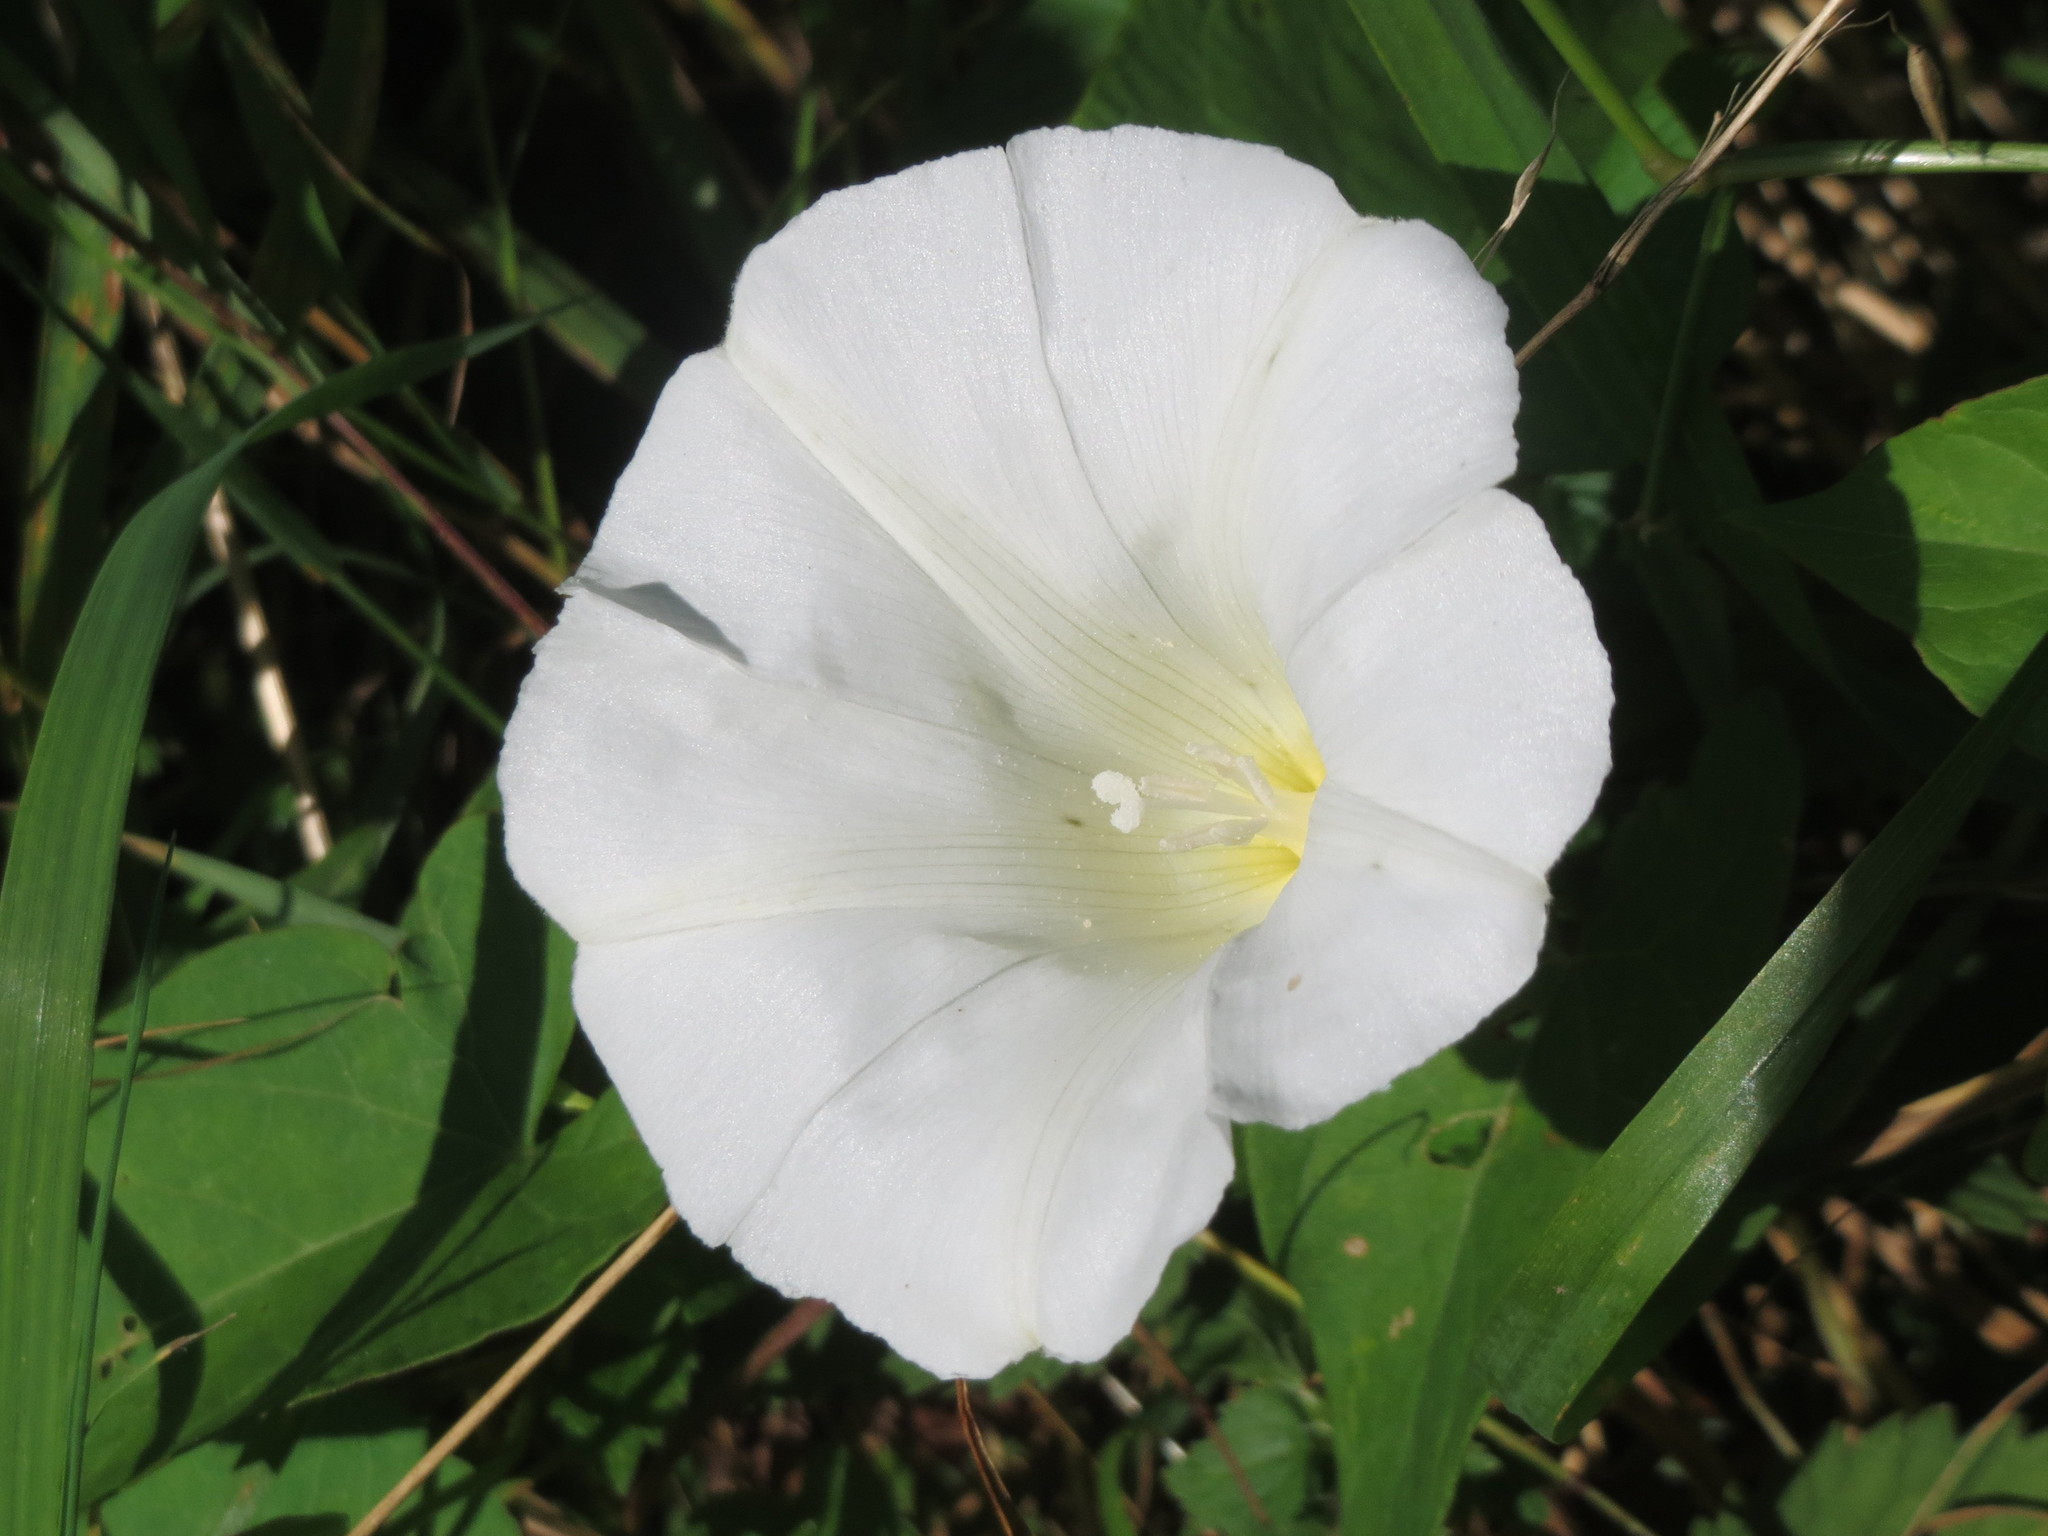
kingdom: Plantae
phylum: Tracheophyta
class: Magnoliopsida
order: Solanales
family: Convolvulaceae
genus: Calystegia
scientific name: Calystegia sepium
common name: Hedge bindweed
